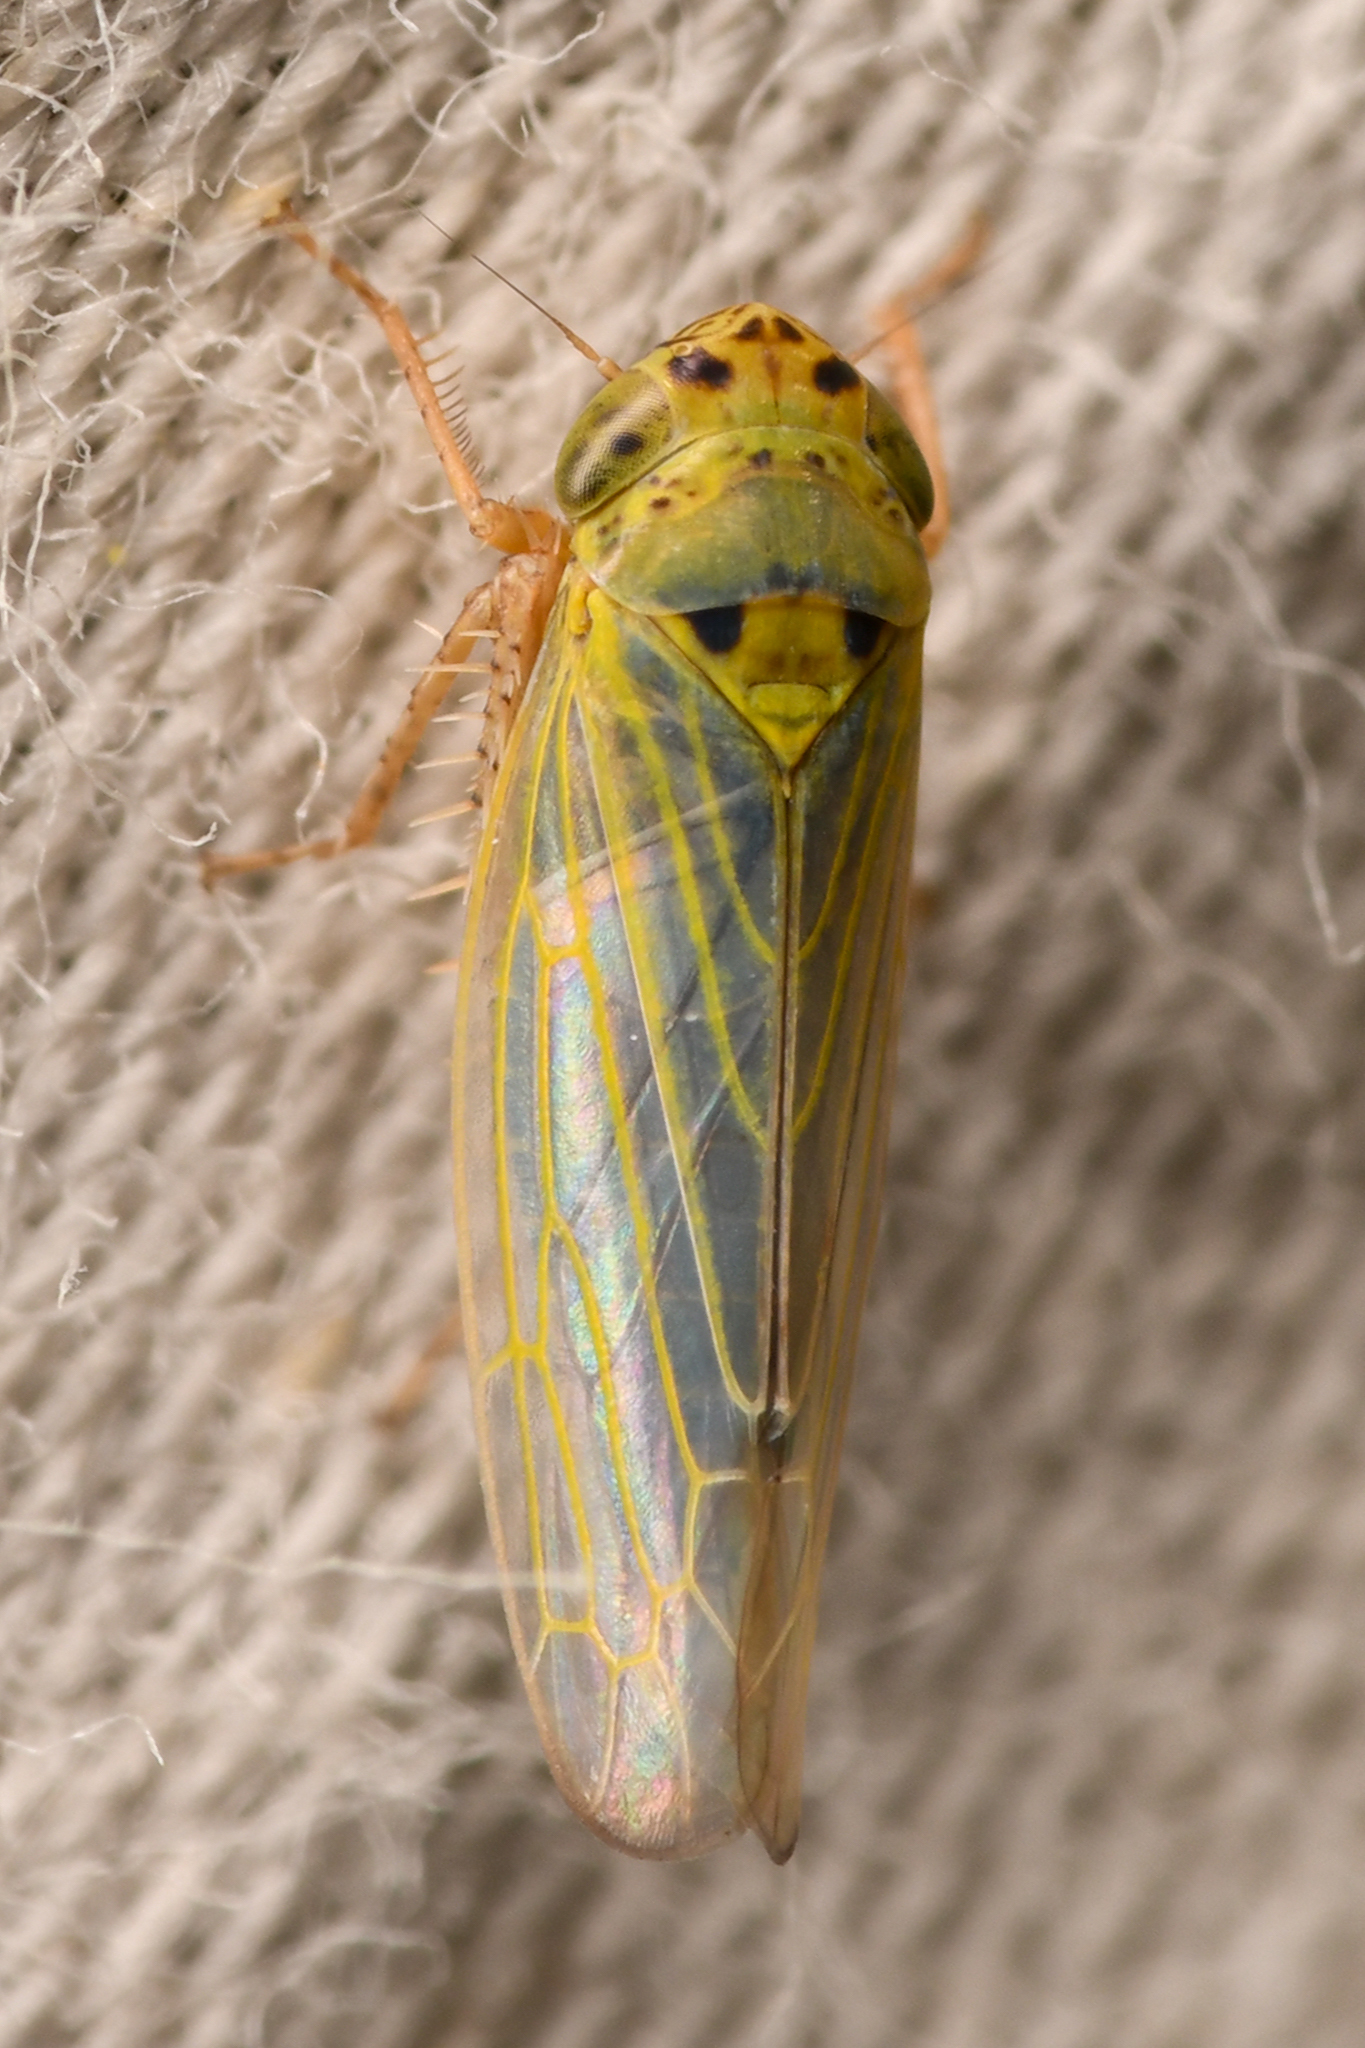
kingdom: Animalia
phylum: Arthropoda
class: Insecta
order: Hemiptera
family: Cicadellidae
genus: Gloridonus
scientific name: Gloridonus venditarius
